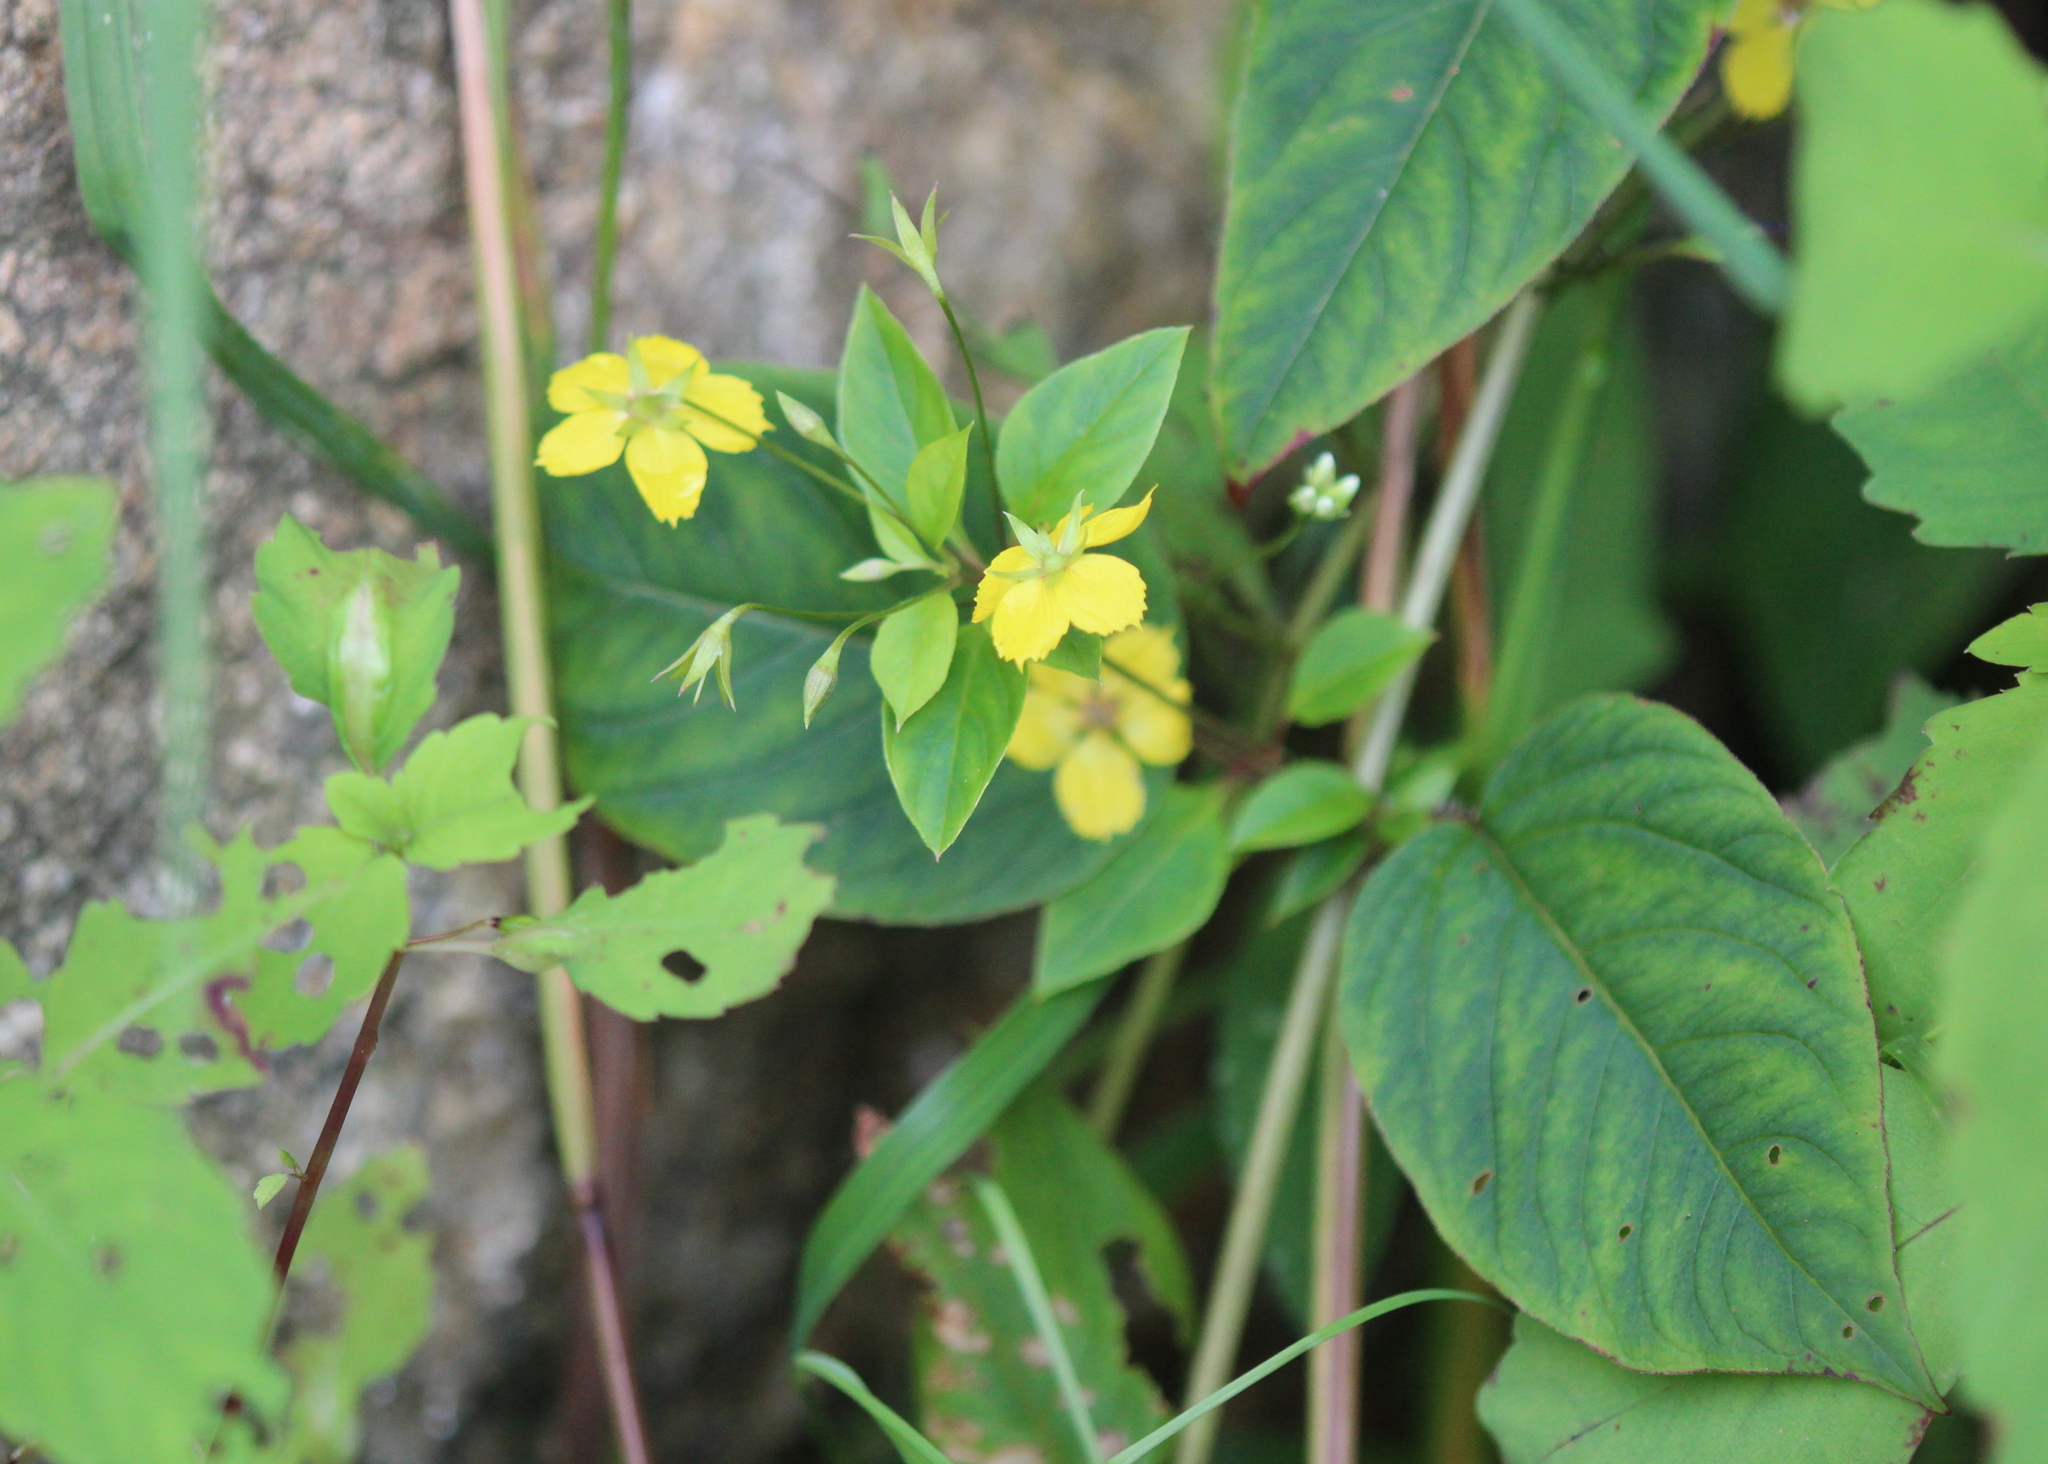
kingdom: Plantae
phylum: Tracheophyta
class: Magnoliopsida
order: Ericales
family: Primulaceae
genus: Lysimachia
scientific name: Lysimachia ciliata
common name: Fringed loosestrife
